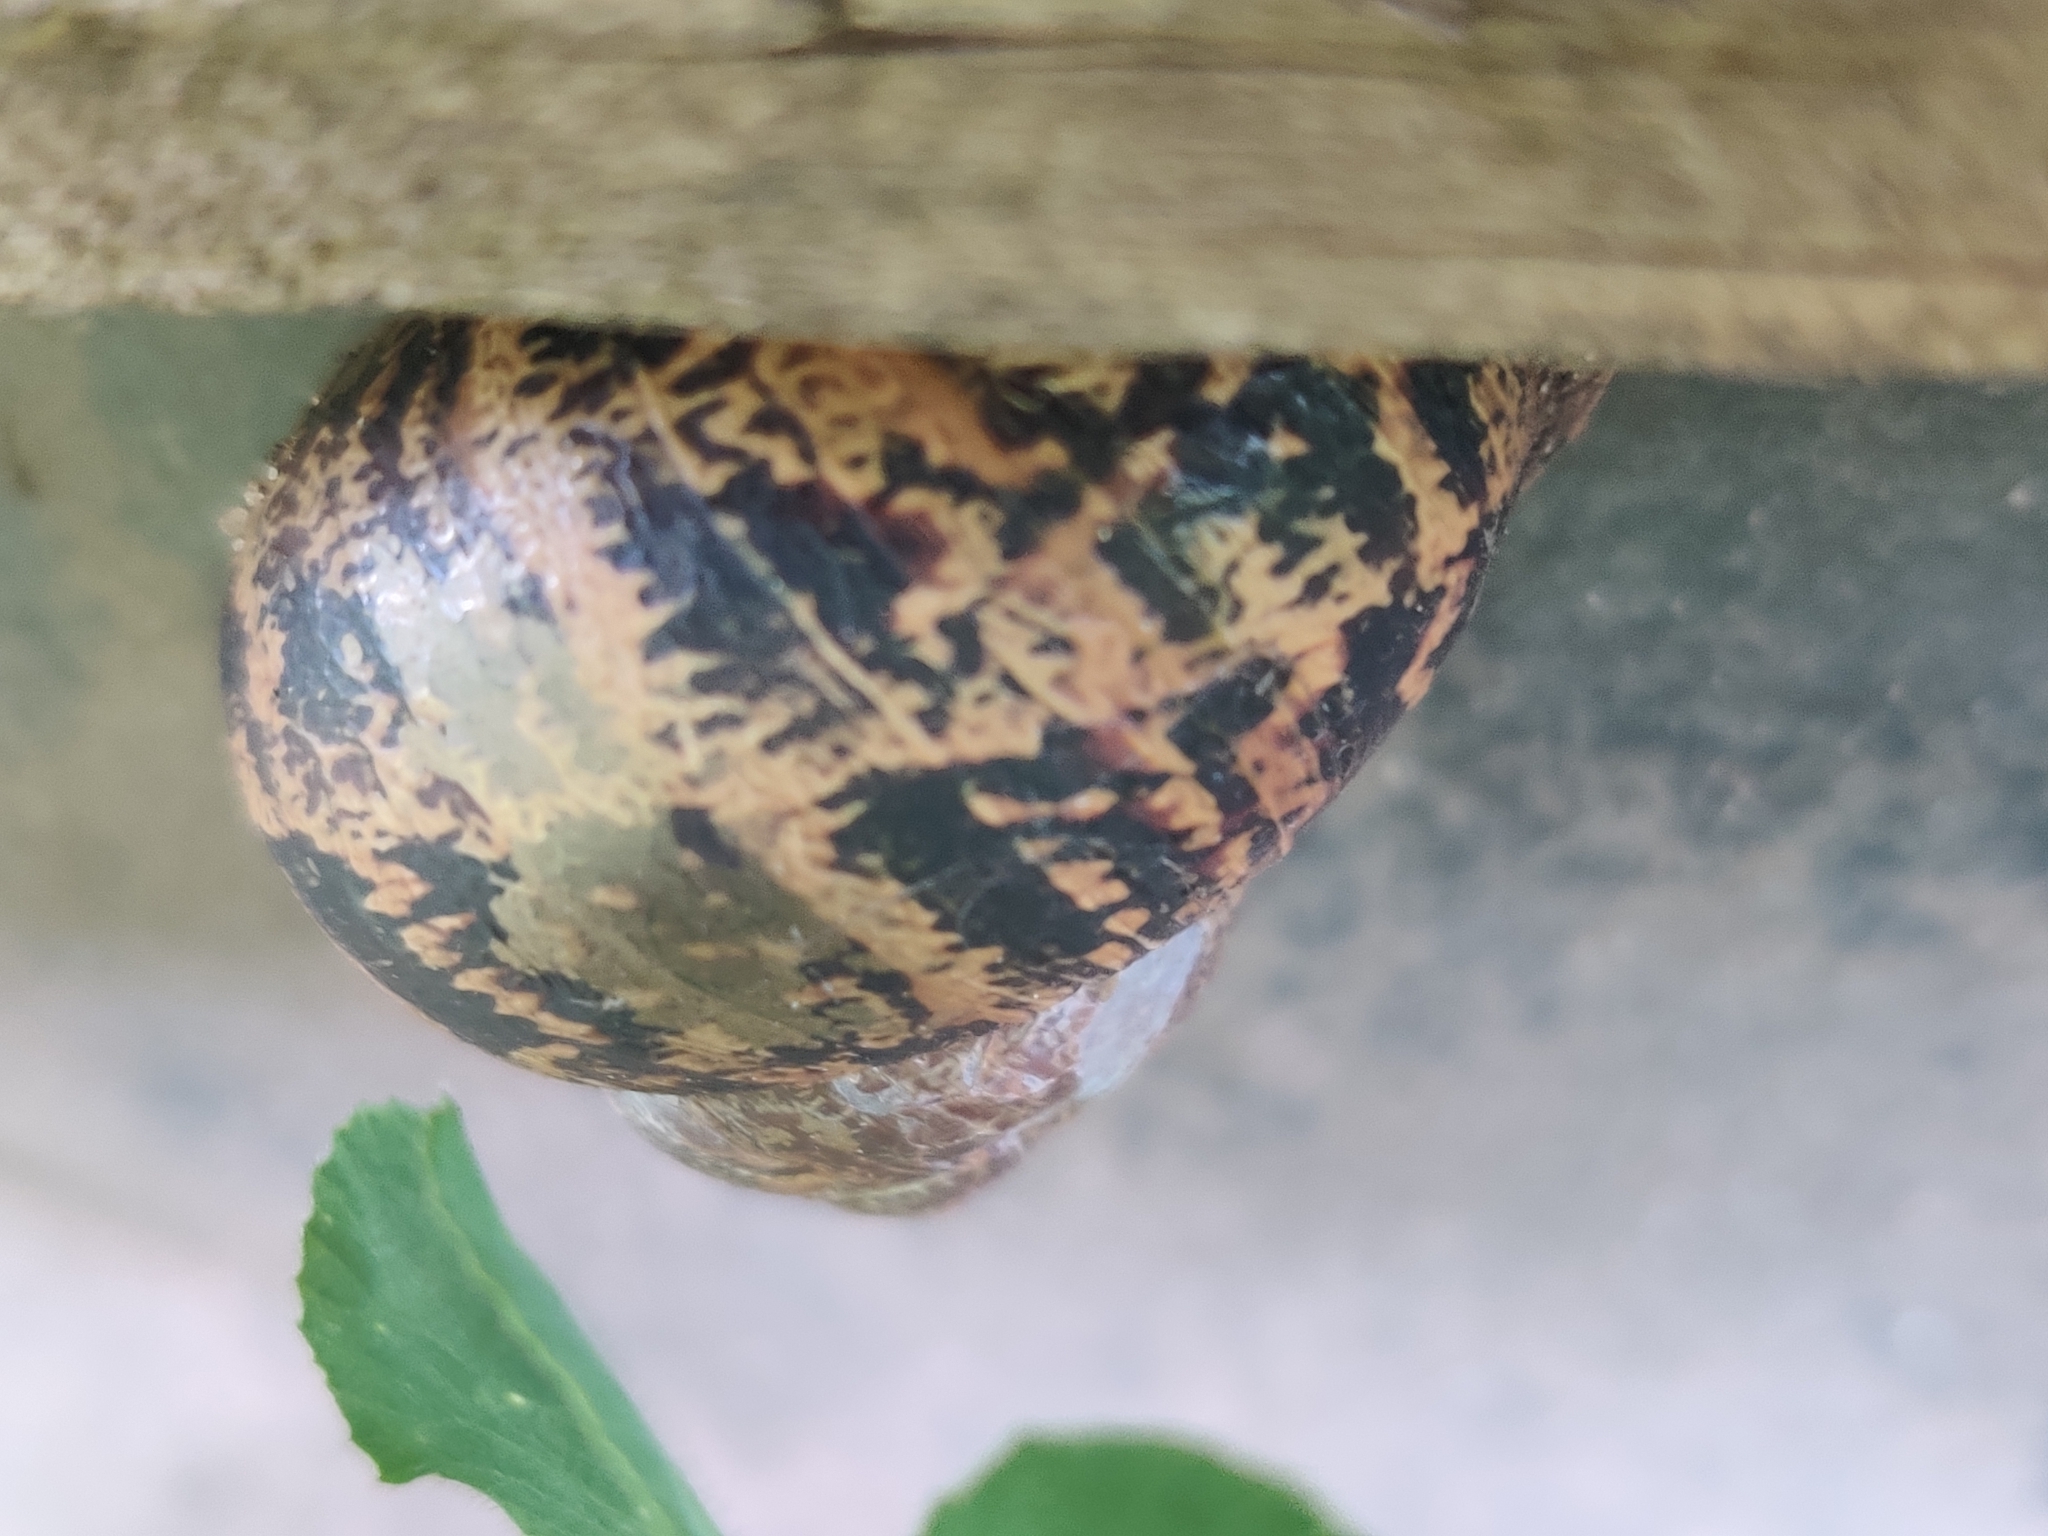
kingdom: Animalia
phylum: Mollusca
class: Gastropoda
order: Stylommatophora
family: Helicidae
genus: Cornu
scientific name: Cornu aspersum
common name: Brown garden snail
